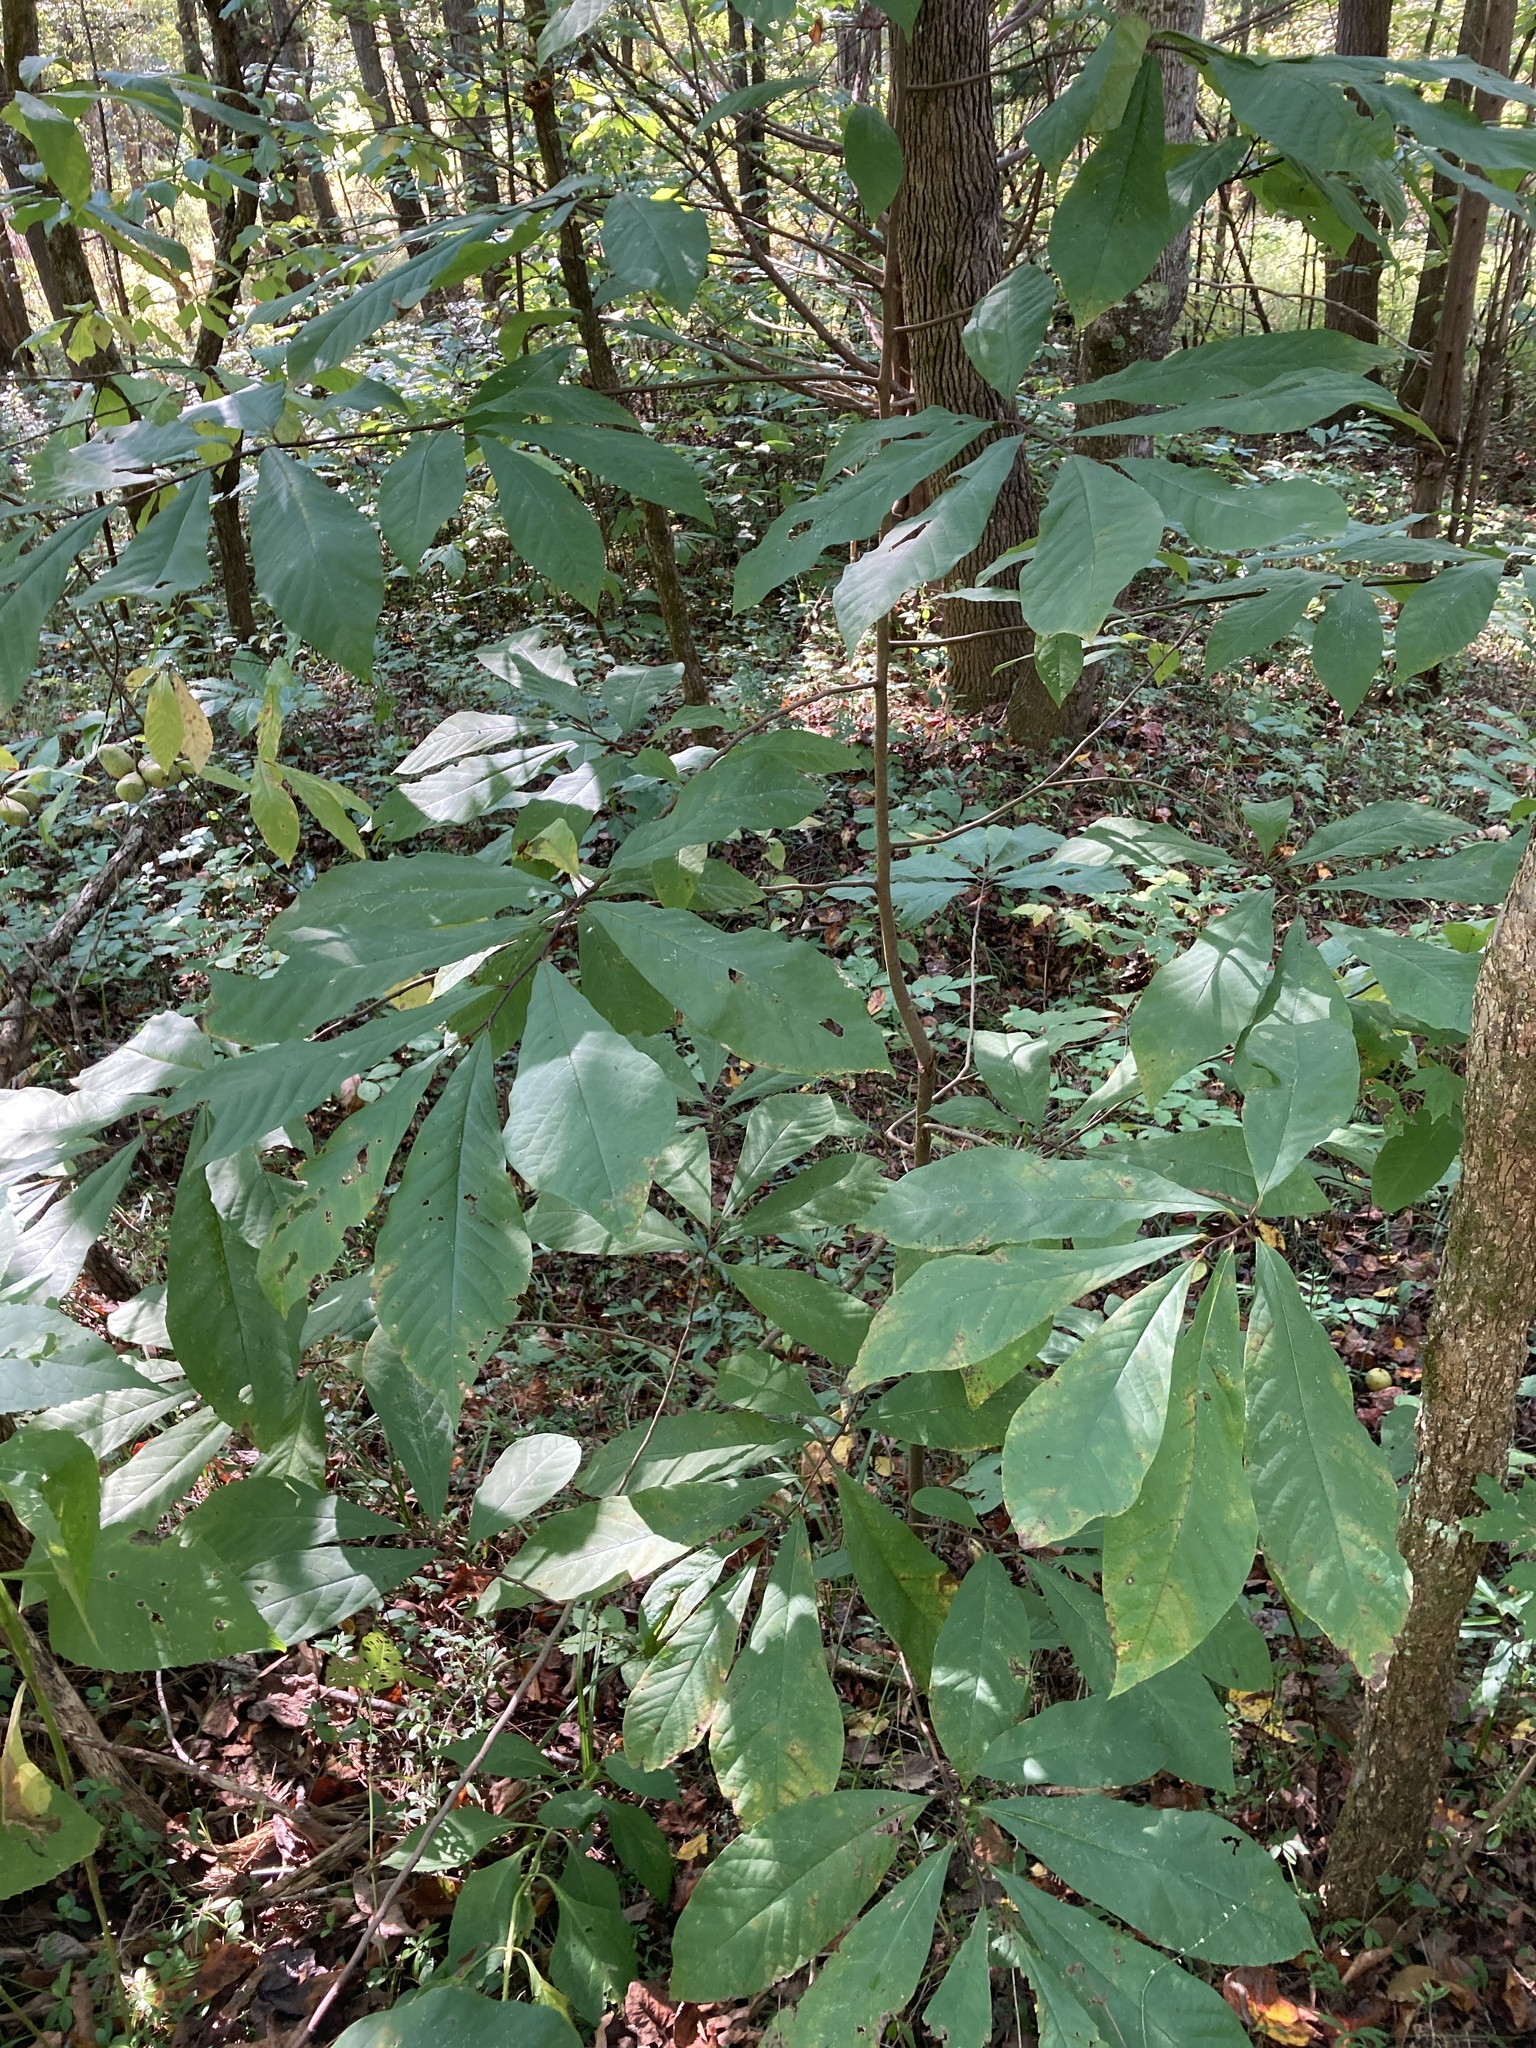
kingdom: Plantae
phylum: Tracheophyta
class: Magnoliopsida
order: Magnoliales
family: Annonaceae
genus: Asimina
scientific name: Asimina triloba
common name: Dog-banana
